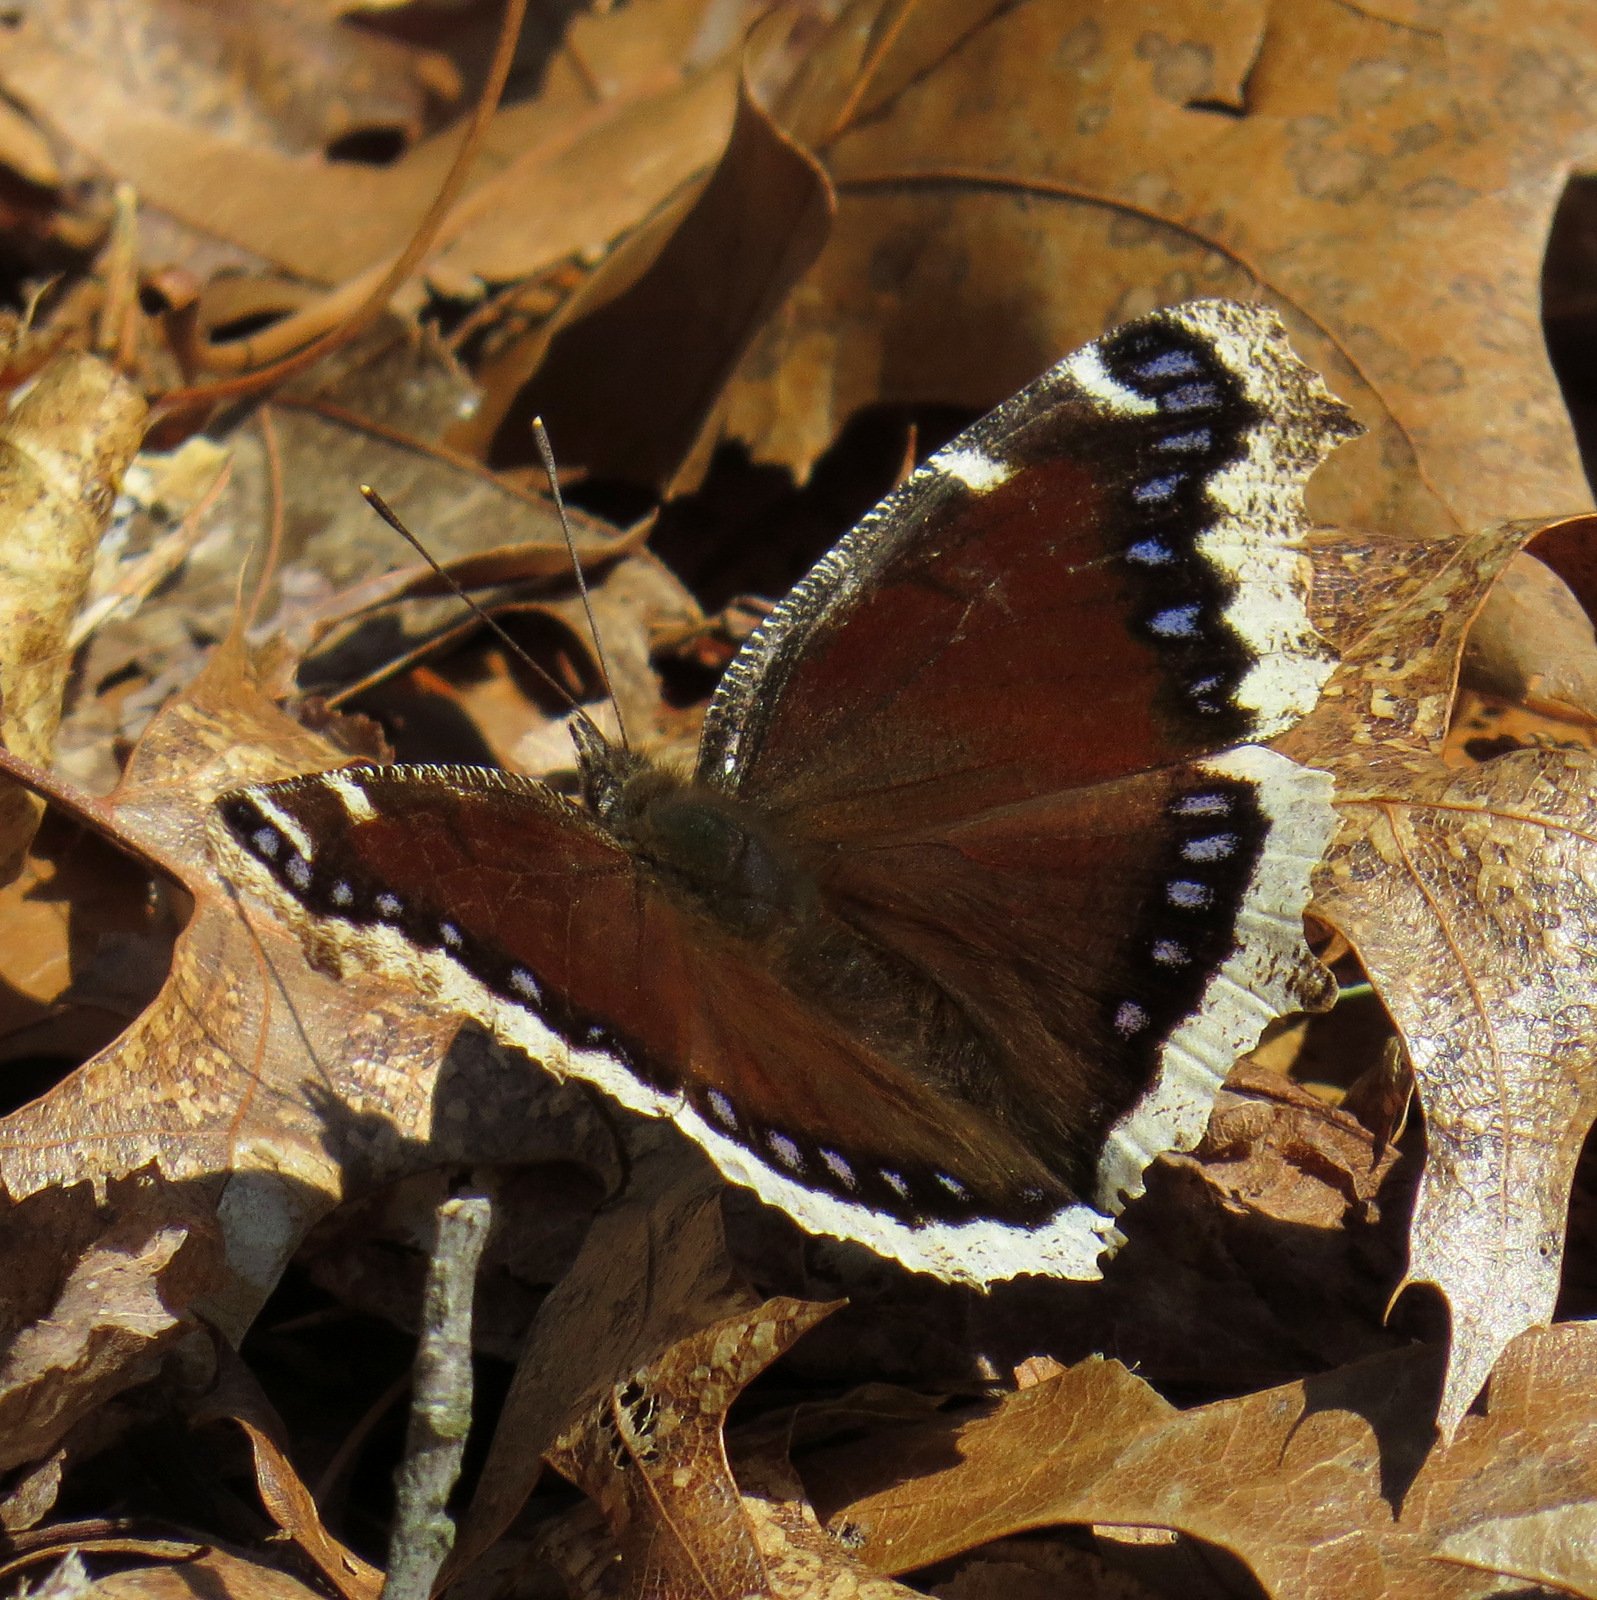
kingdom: Animalia
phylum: Arthropoda
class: Insecta
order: Lepidoptera
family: Nymphalidae
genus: Nymphalis
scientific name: Nymphalis antiopa
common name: Camberwell beauty
